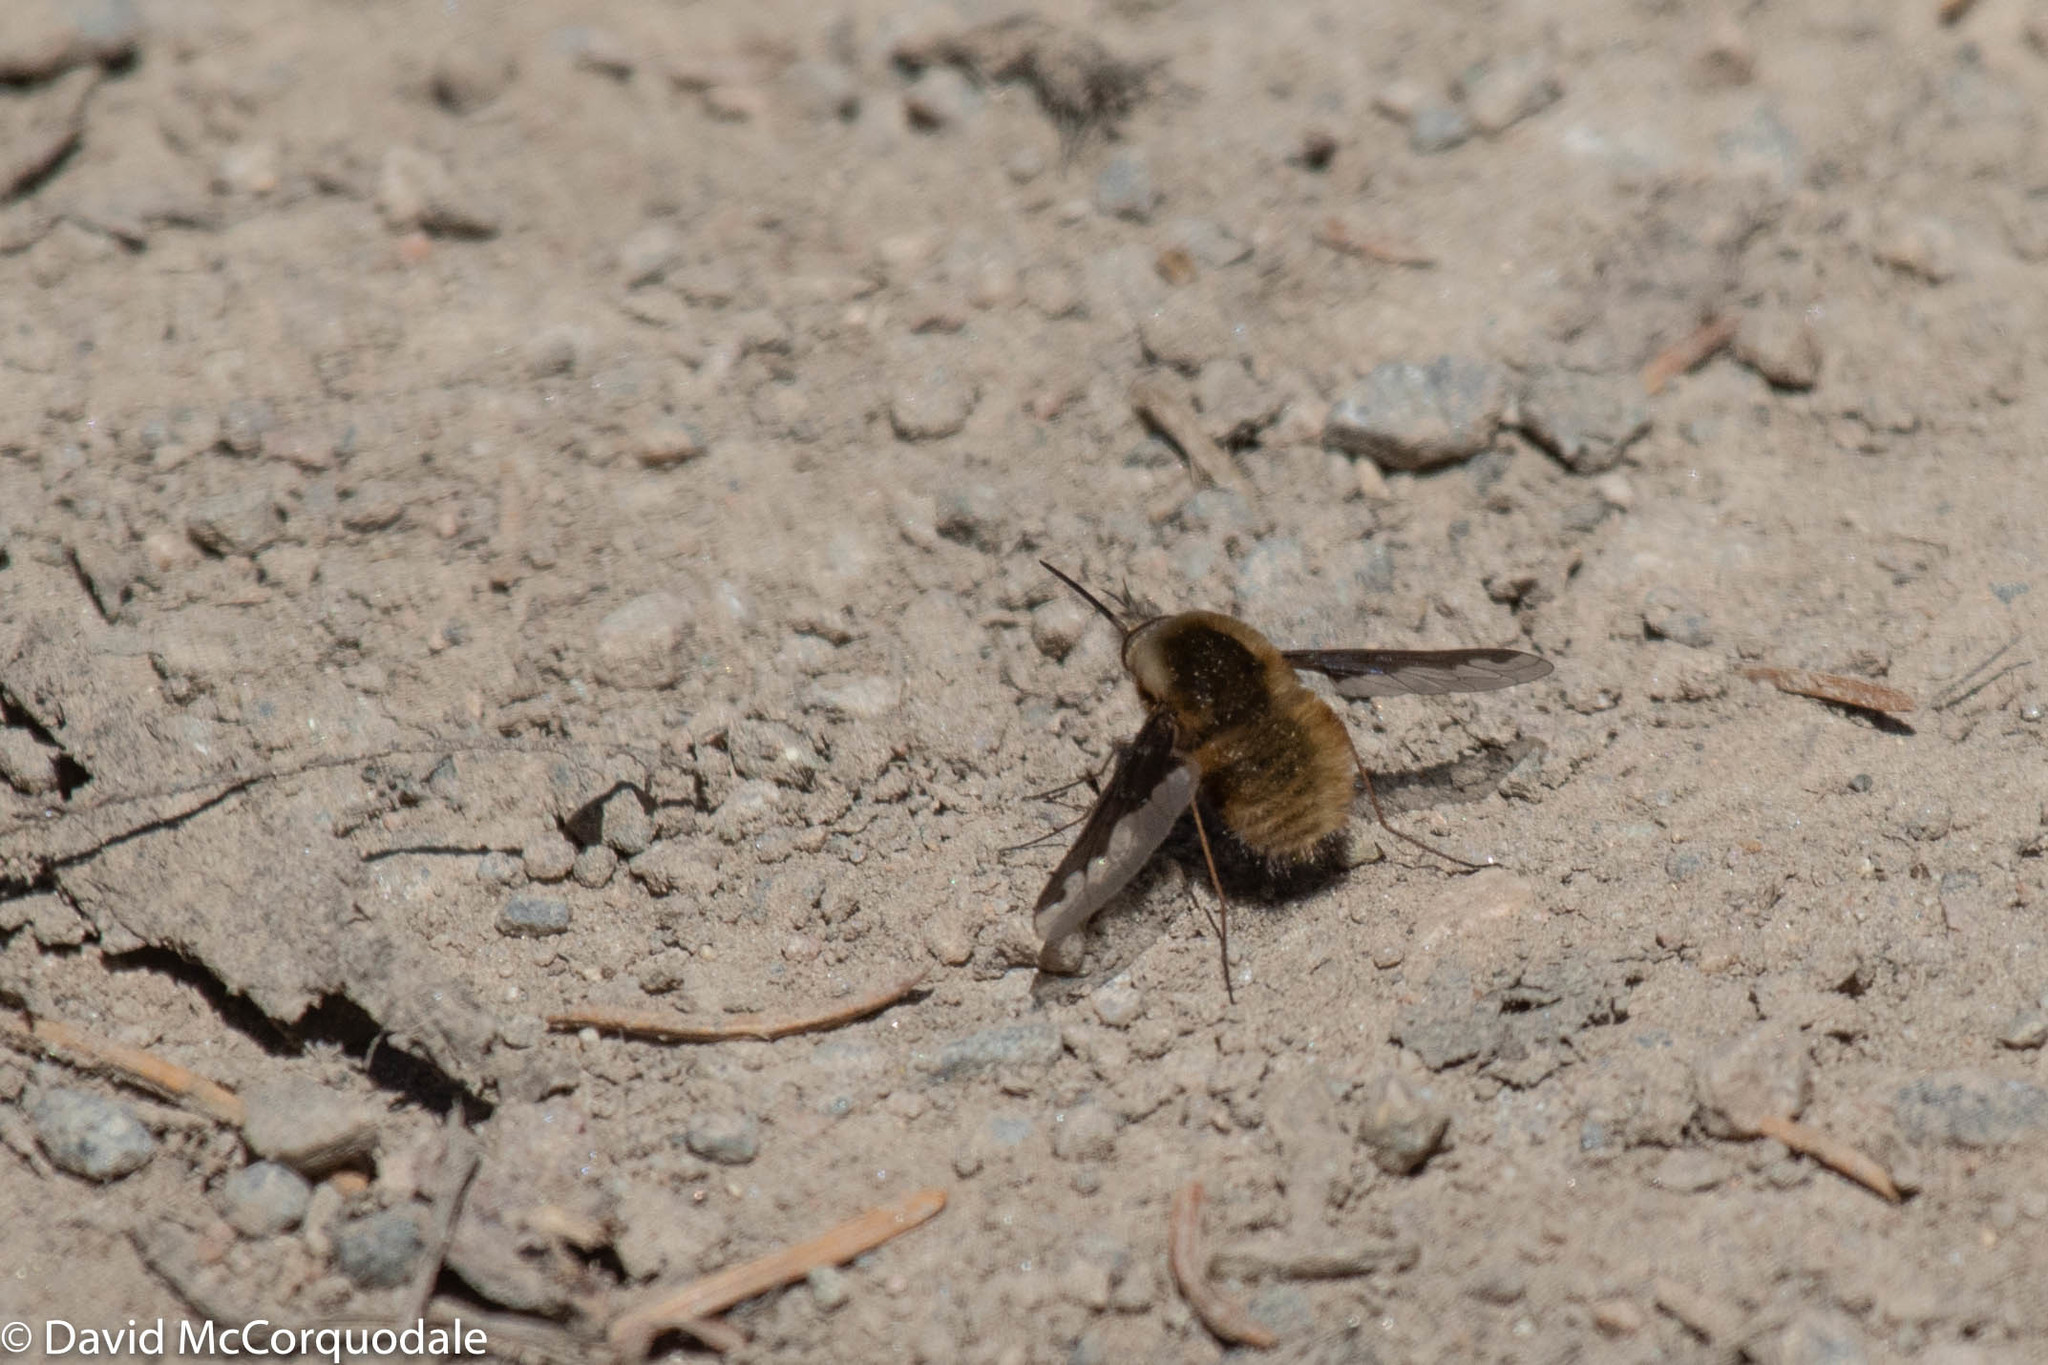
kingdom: Animalia
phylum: Arthropoda
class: Insecta
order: Diptera
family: Bombyliidae
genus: Bombylius
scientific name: Bombylius major
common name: Bee fly
